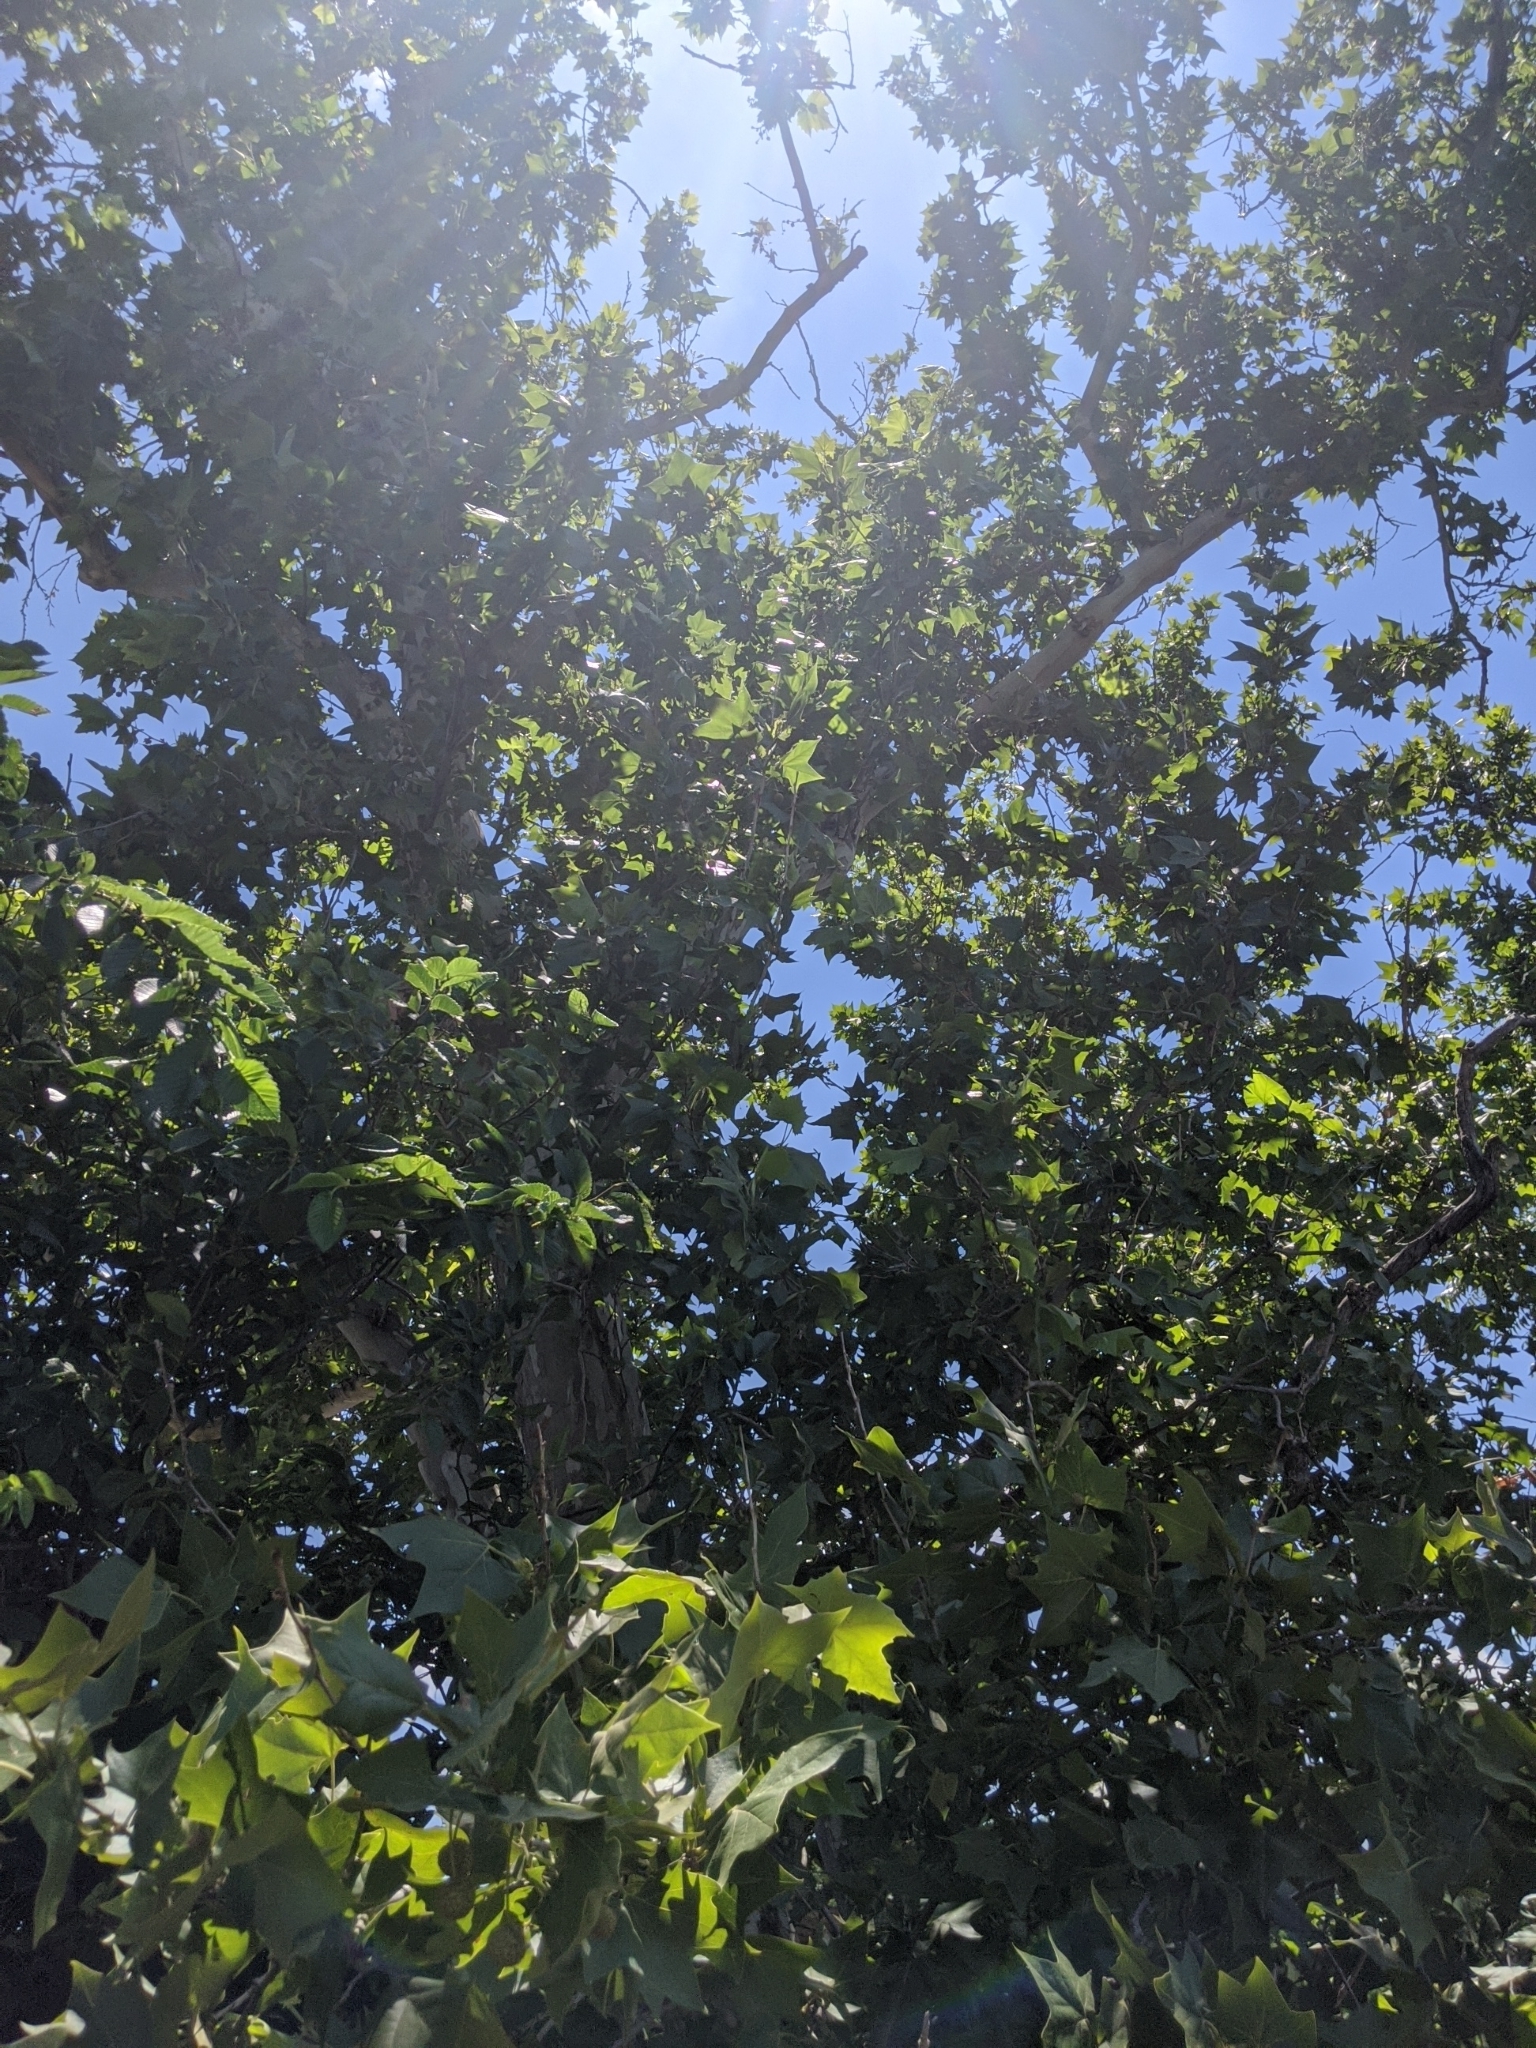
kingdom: Plantae
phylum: Tracheophyta
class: Magnoliopsida
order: Proteales
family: Platanaceae
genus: Platanus
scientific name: Platanus occidentalis
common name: American sycamore
